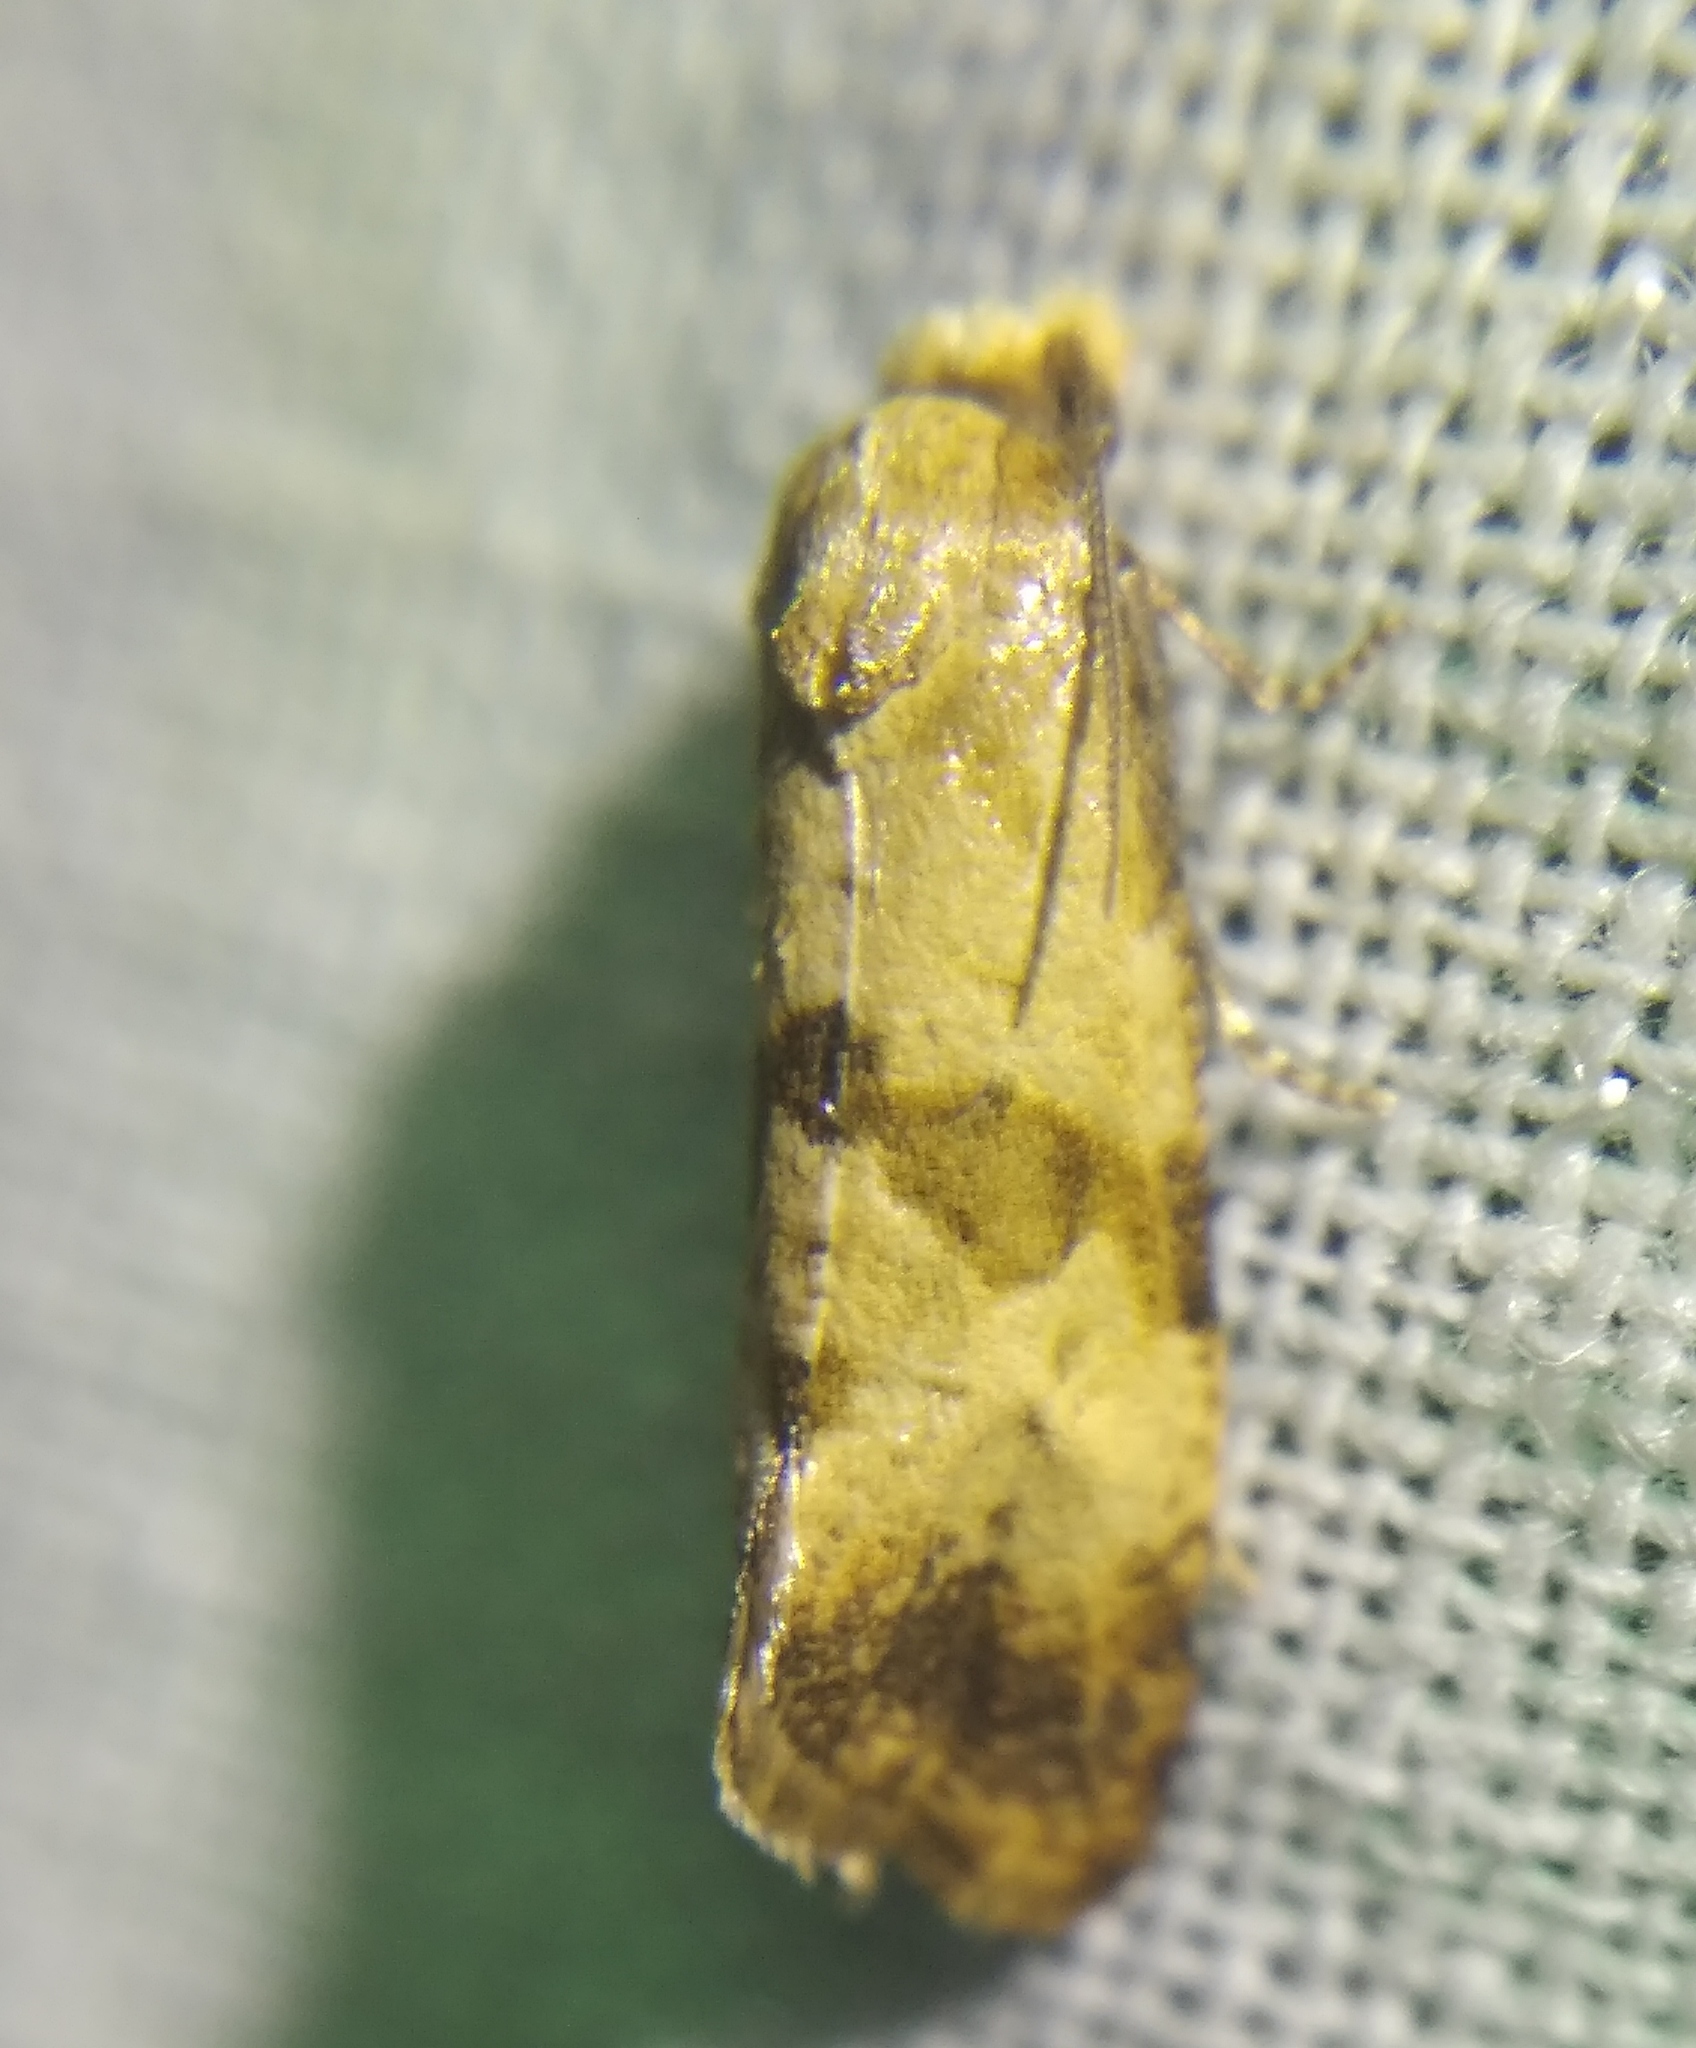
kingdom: Animalia
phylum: Arthropoda
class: Insecta
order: Lepidoptera
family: Tortricidae
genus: Phalonidia
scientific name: Phalonidia contractana
